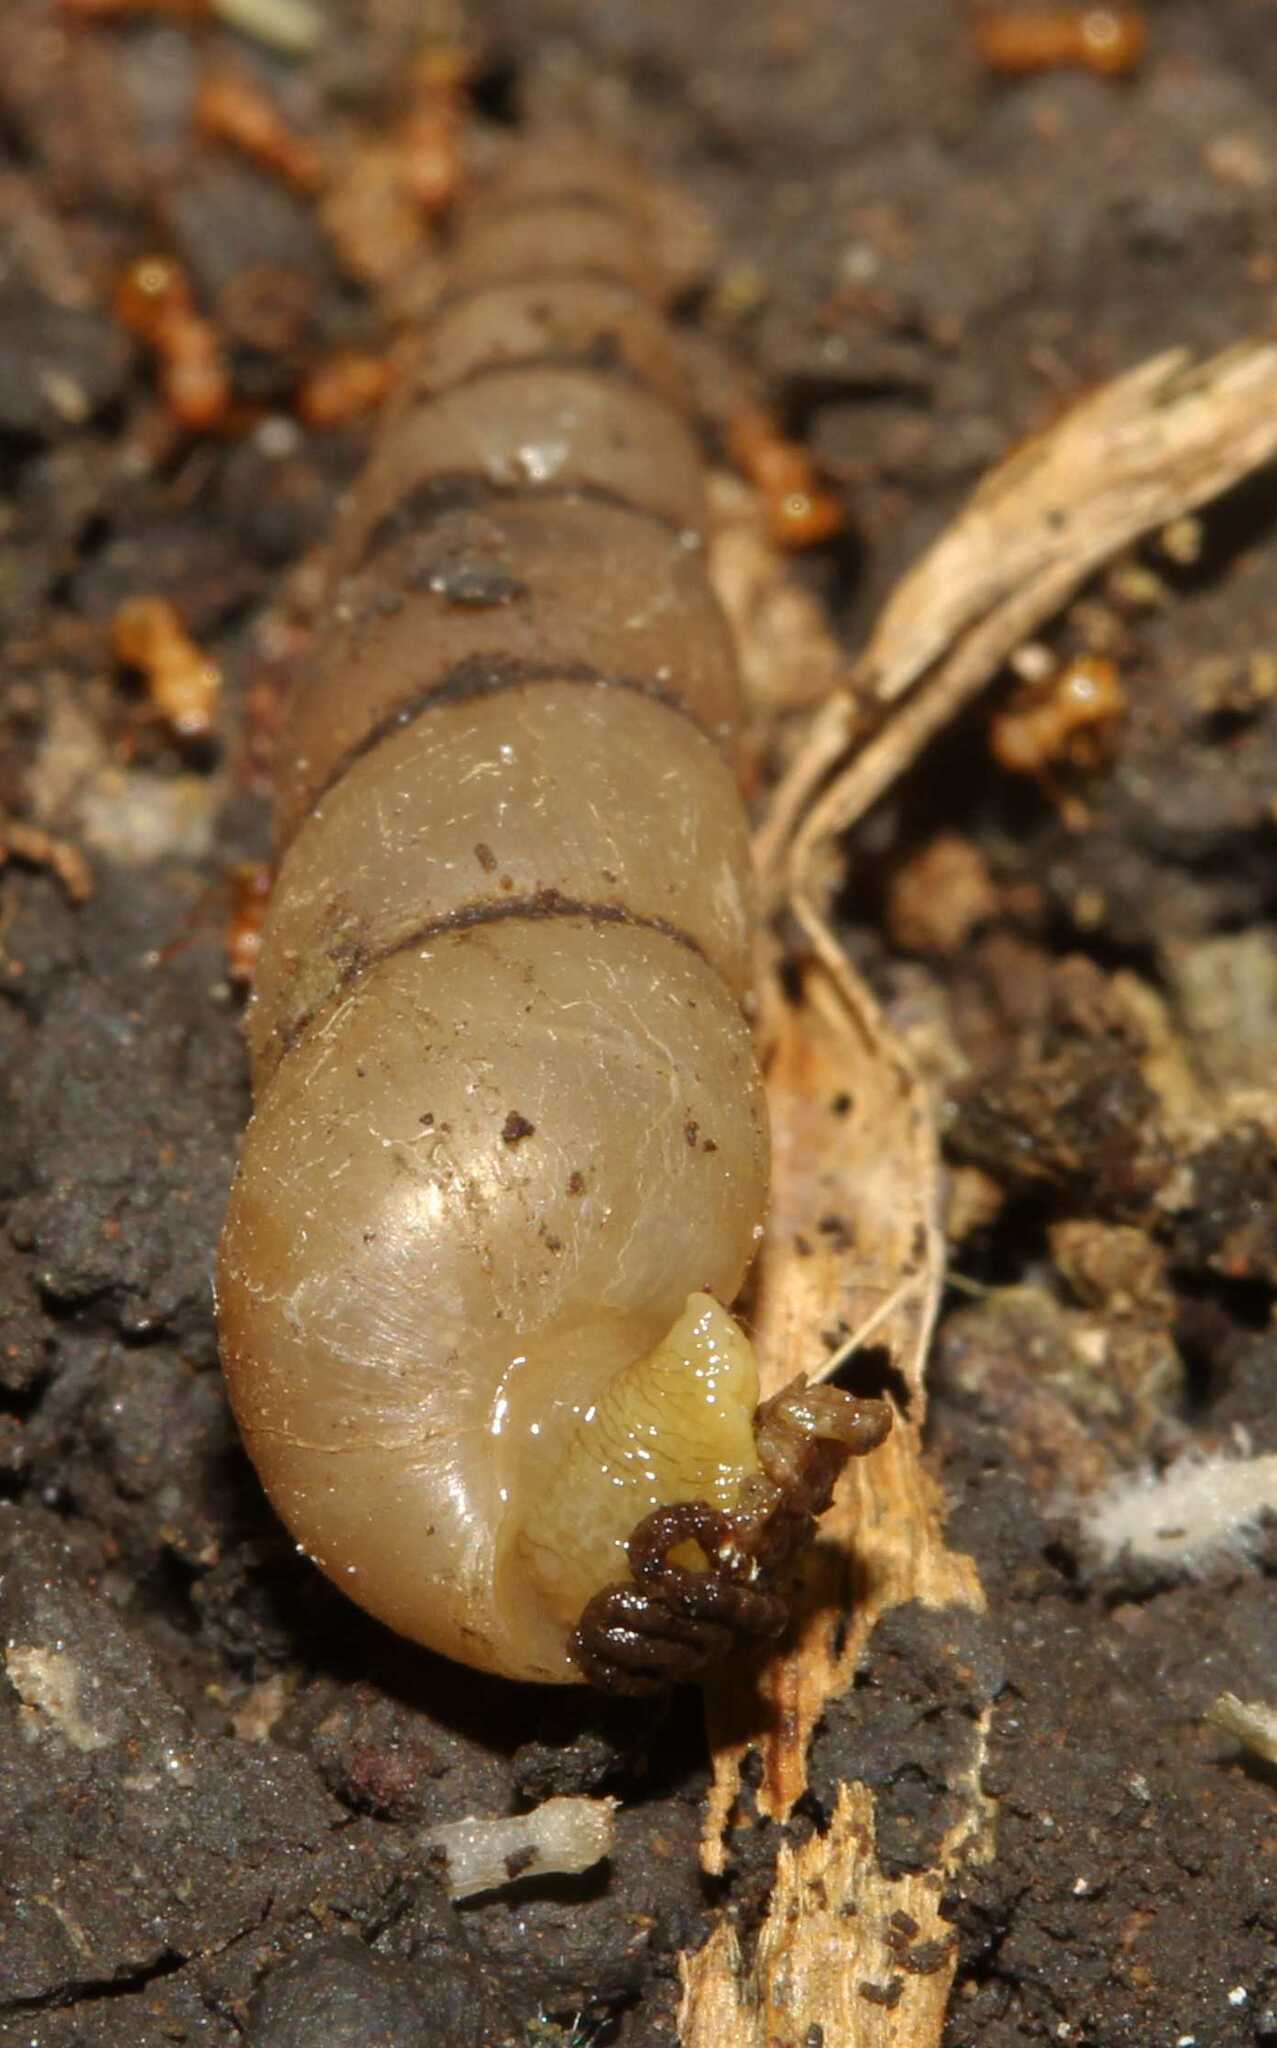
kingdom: Animalia
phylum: Mollusca
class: Gastropoda
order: Stylommatophora
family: Achatinidae
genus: Subulina
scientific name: Subulina octona
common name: Miniature awlsnail
